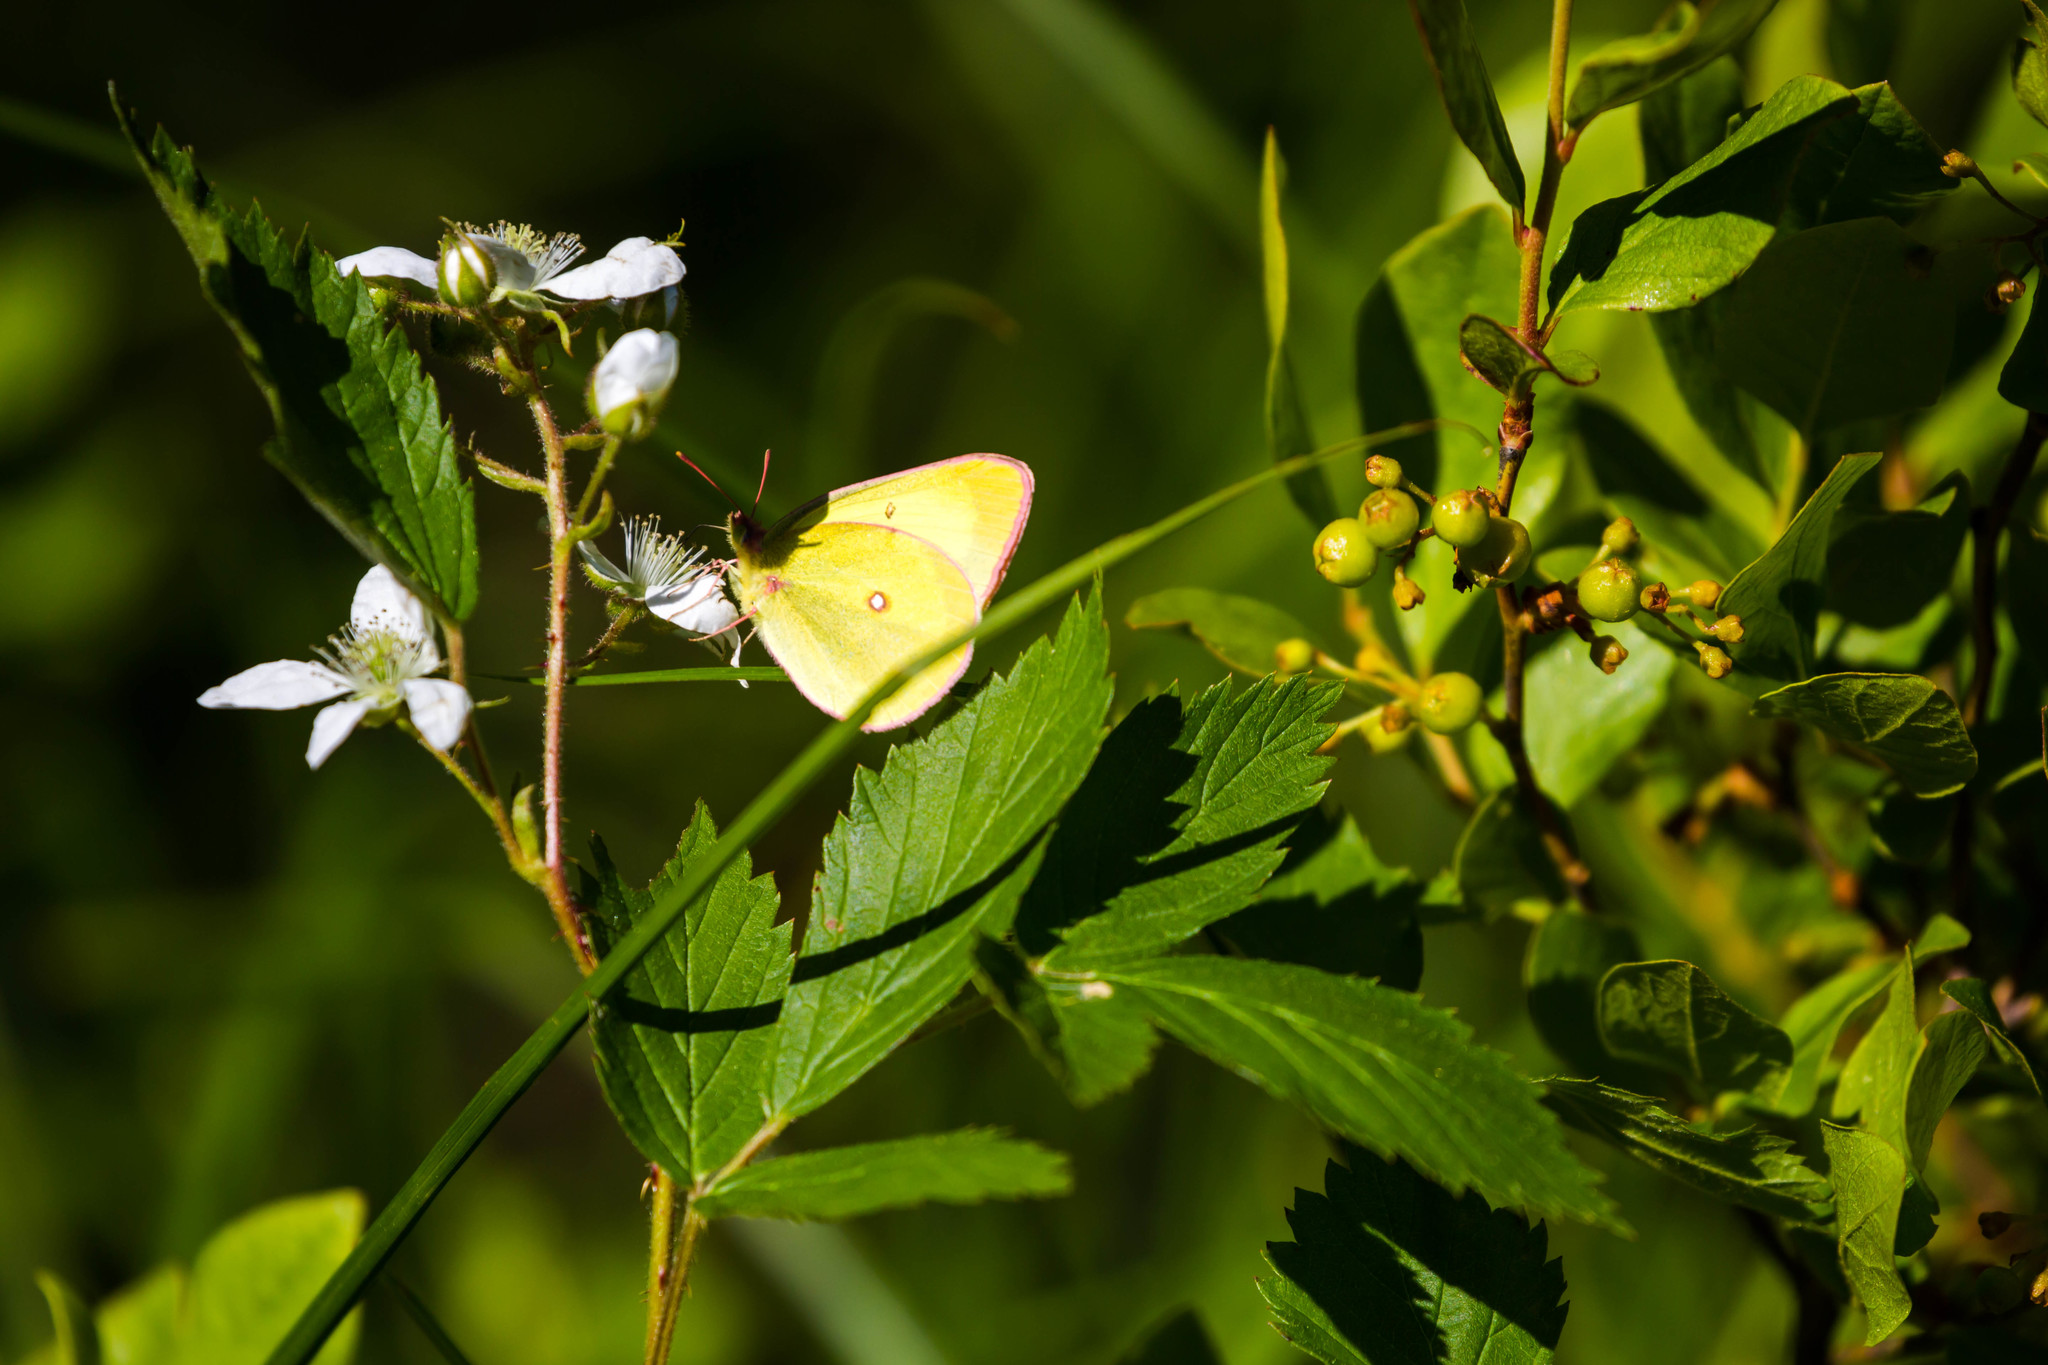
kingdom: Animalia
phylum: Arthropoda
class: Insecta
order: Lepidoptera
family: Pieridae
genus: Colias
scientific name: Colias interior
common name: Pink-edged sulphur
